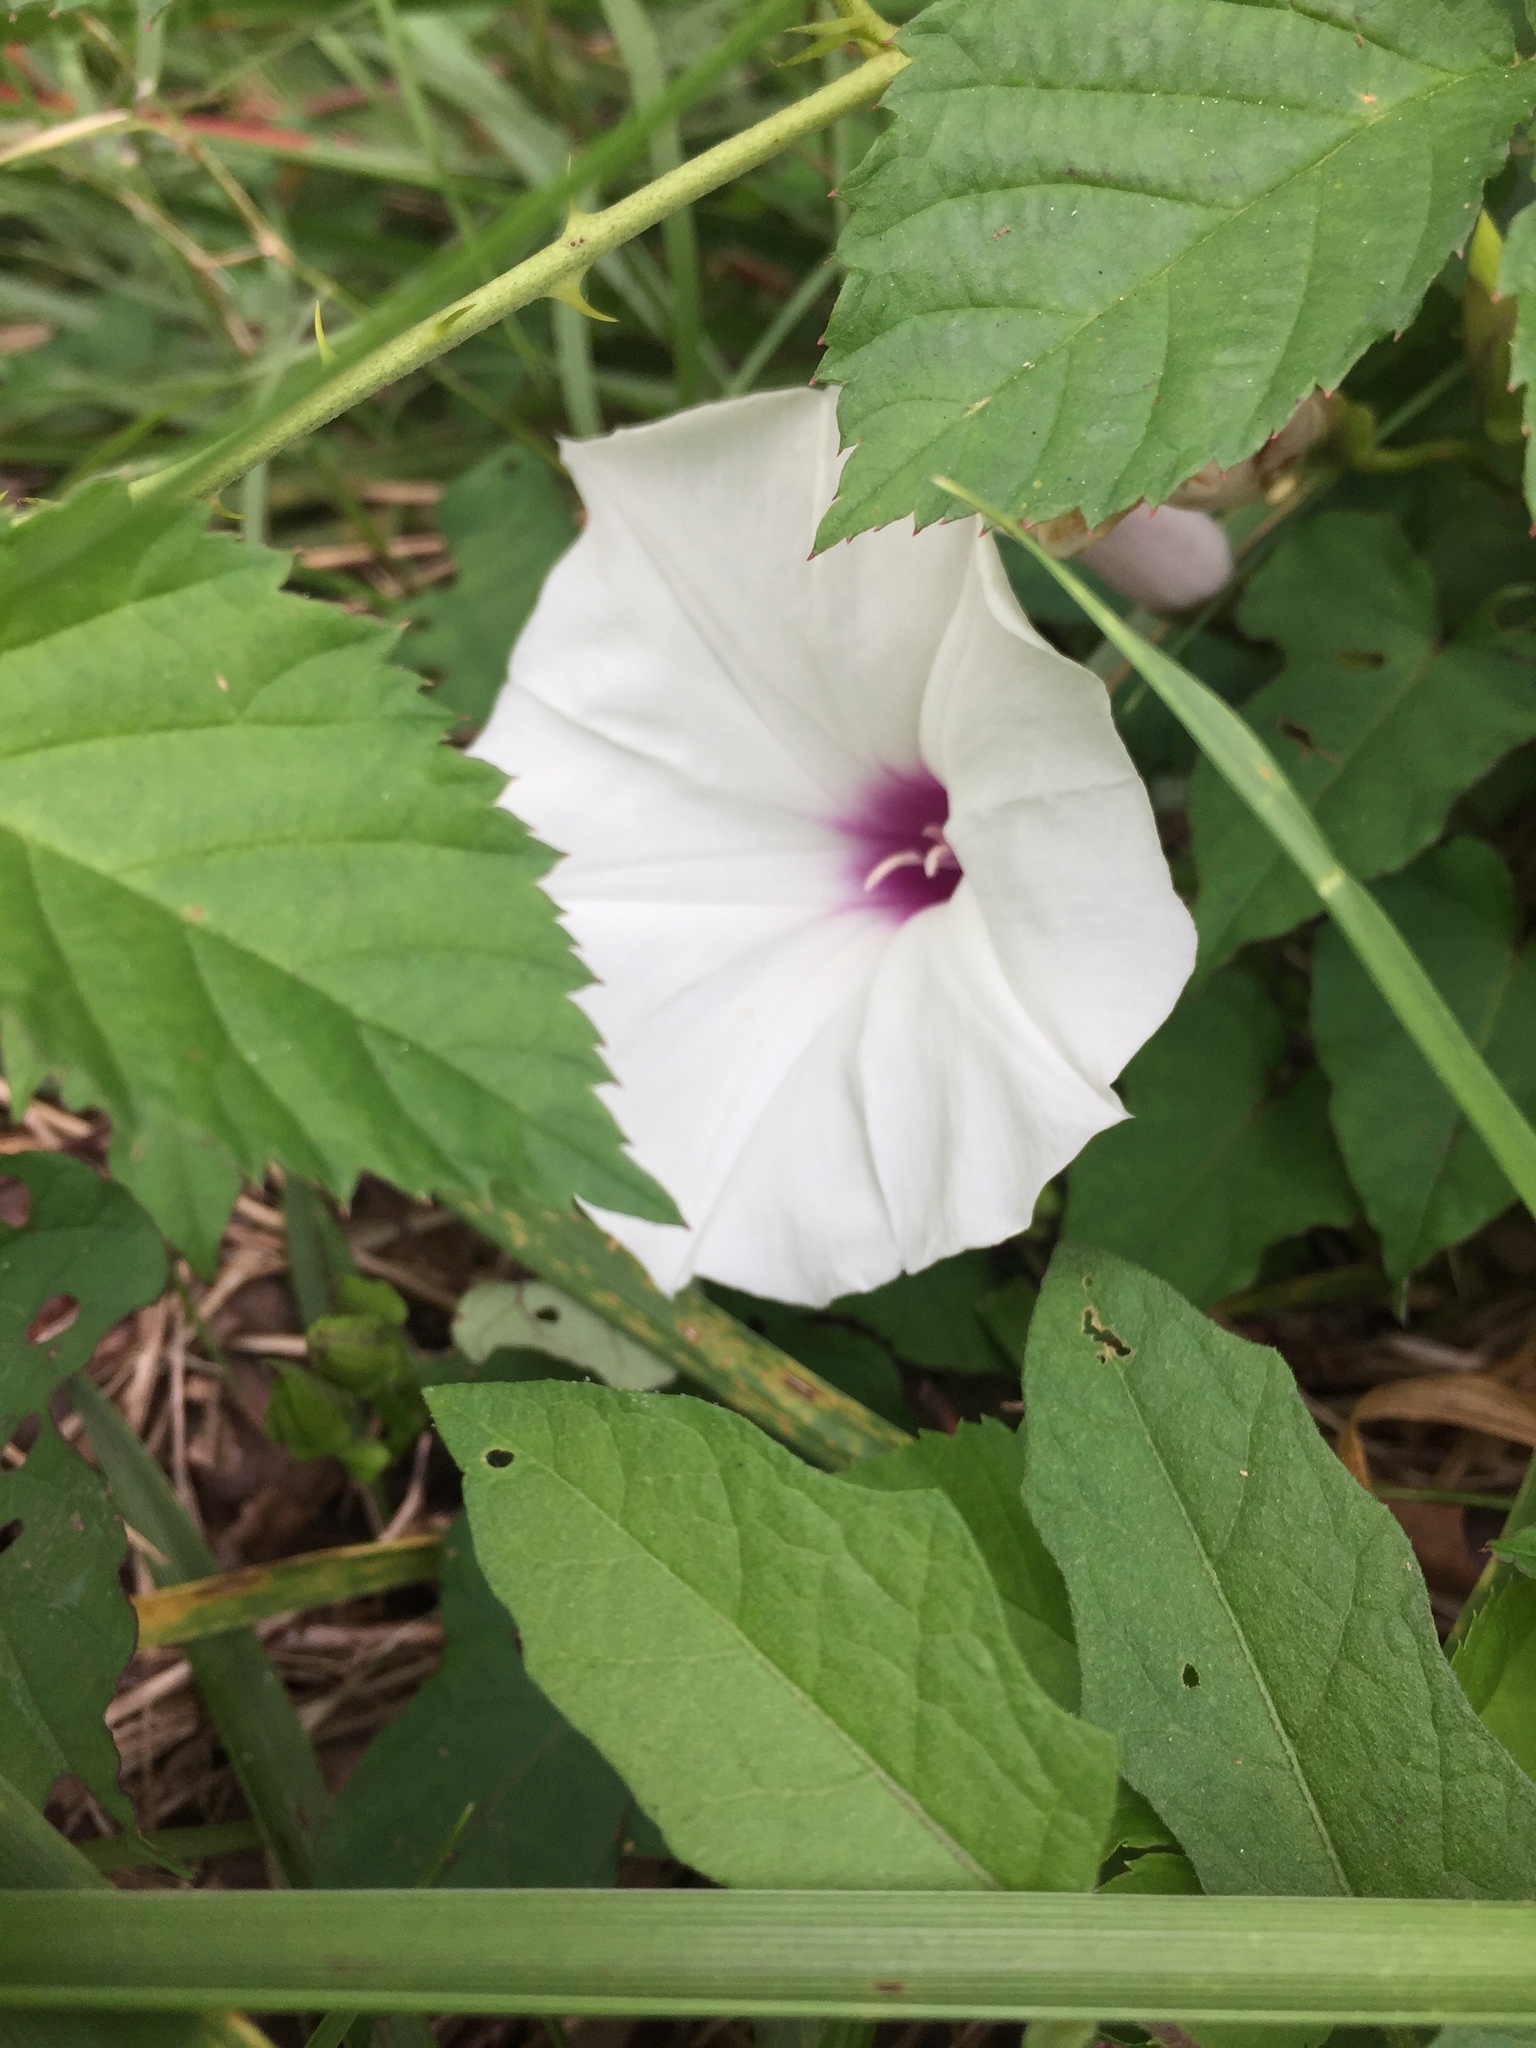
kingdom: Plantae
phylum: Tracheophyta
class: Magnoliopsida
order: Solanales
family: Convolvulaceae
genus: Ipomoea
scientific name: Ipomoea pandurata
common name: Man-of-the-earth
